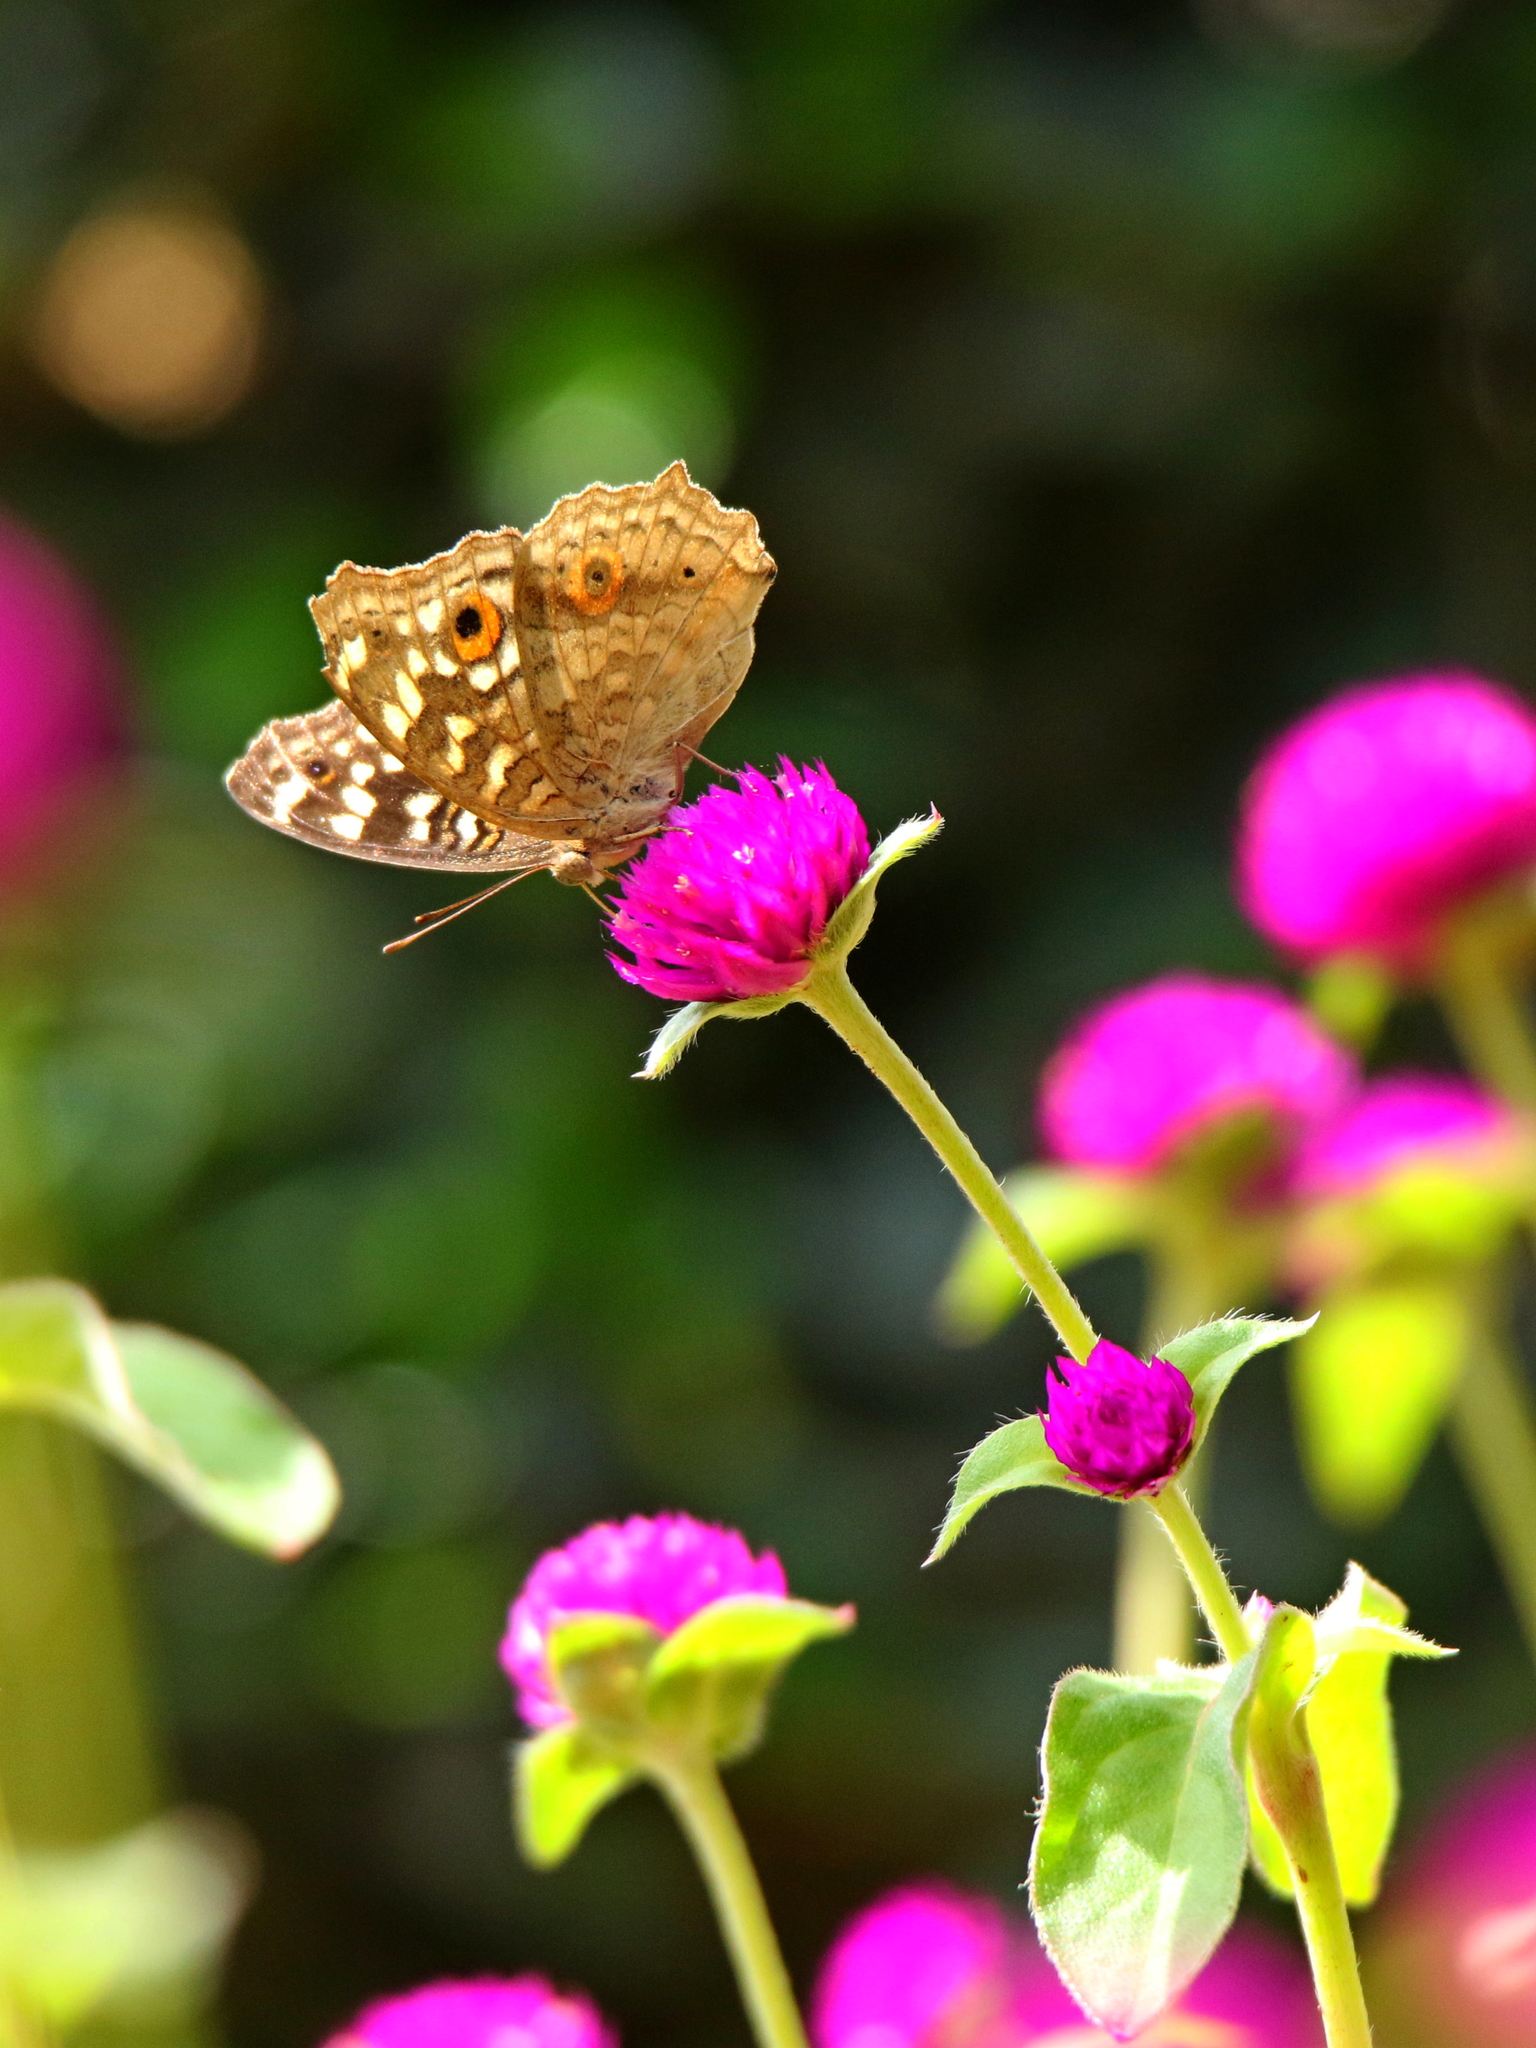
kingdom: Animalia
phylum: Arthropoda
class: Insecta
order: Lepidoptera
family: Nymphalidae
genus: Junonia
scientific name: Junonia lemonias
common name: Lemon pansy
